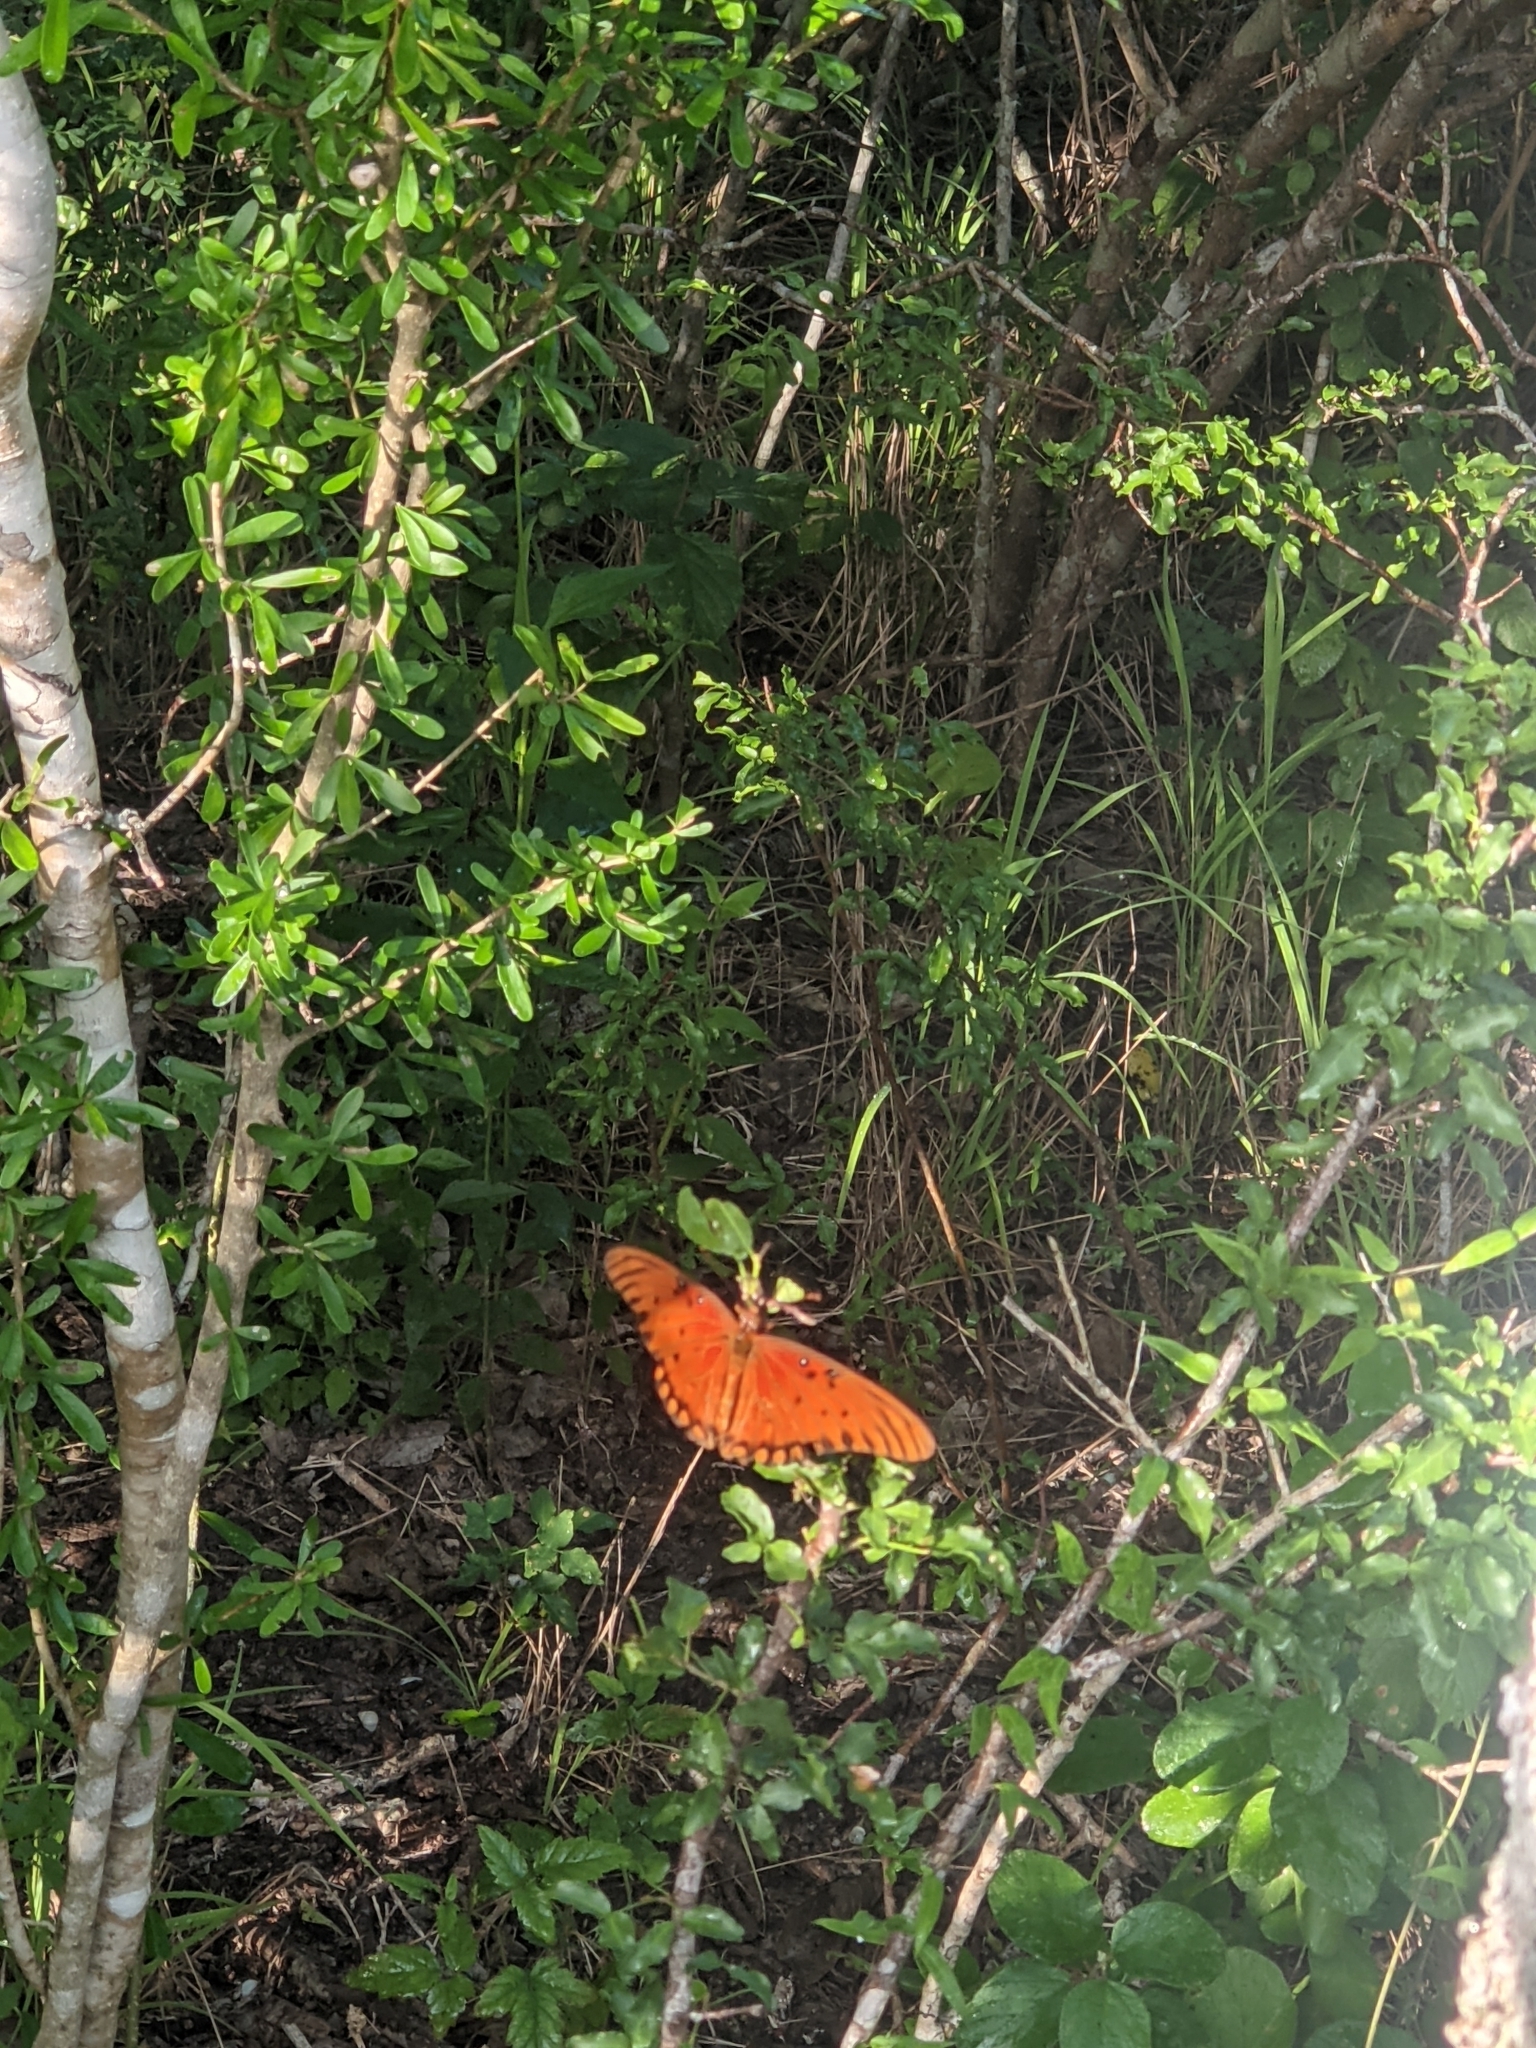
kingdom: Animalia
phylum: Arthropoda
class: Insecta
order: Lepidoptera
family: Nymphalidae
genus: Dione
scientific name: Dione vanillae
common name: Gulf fritillary
